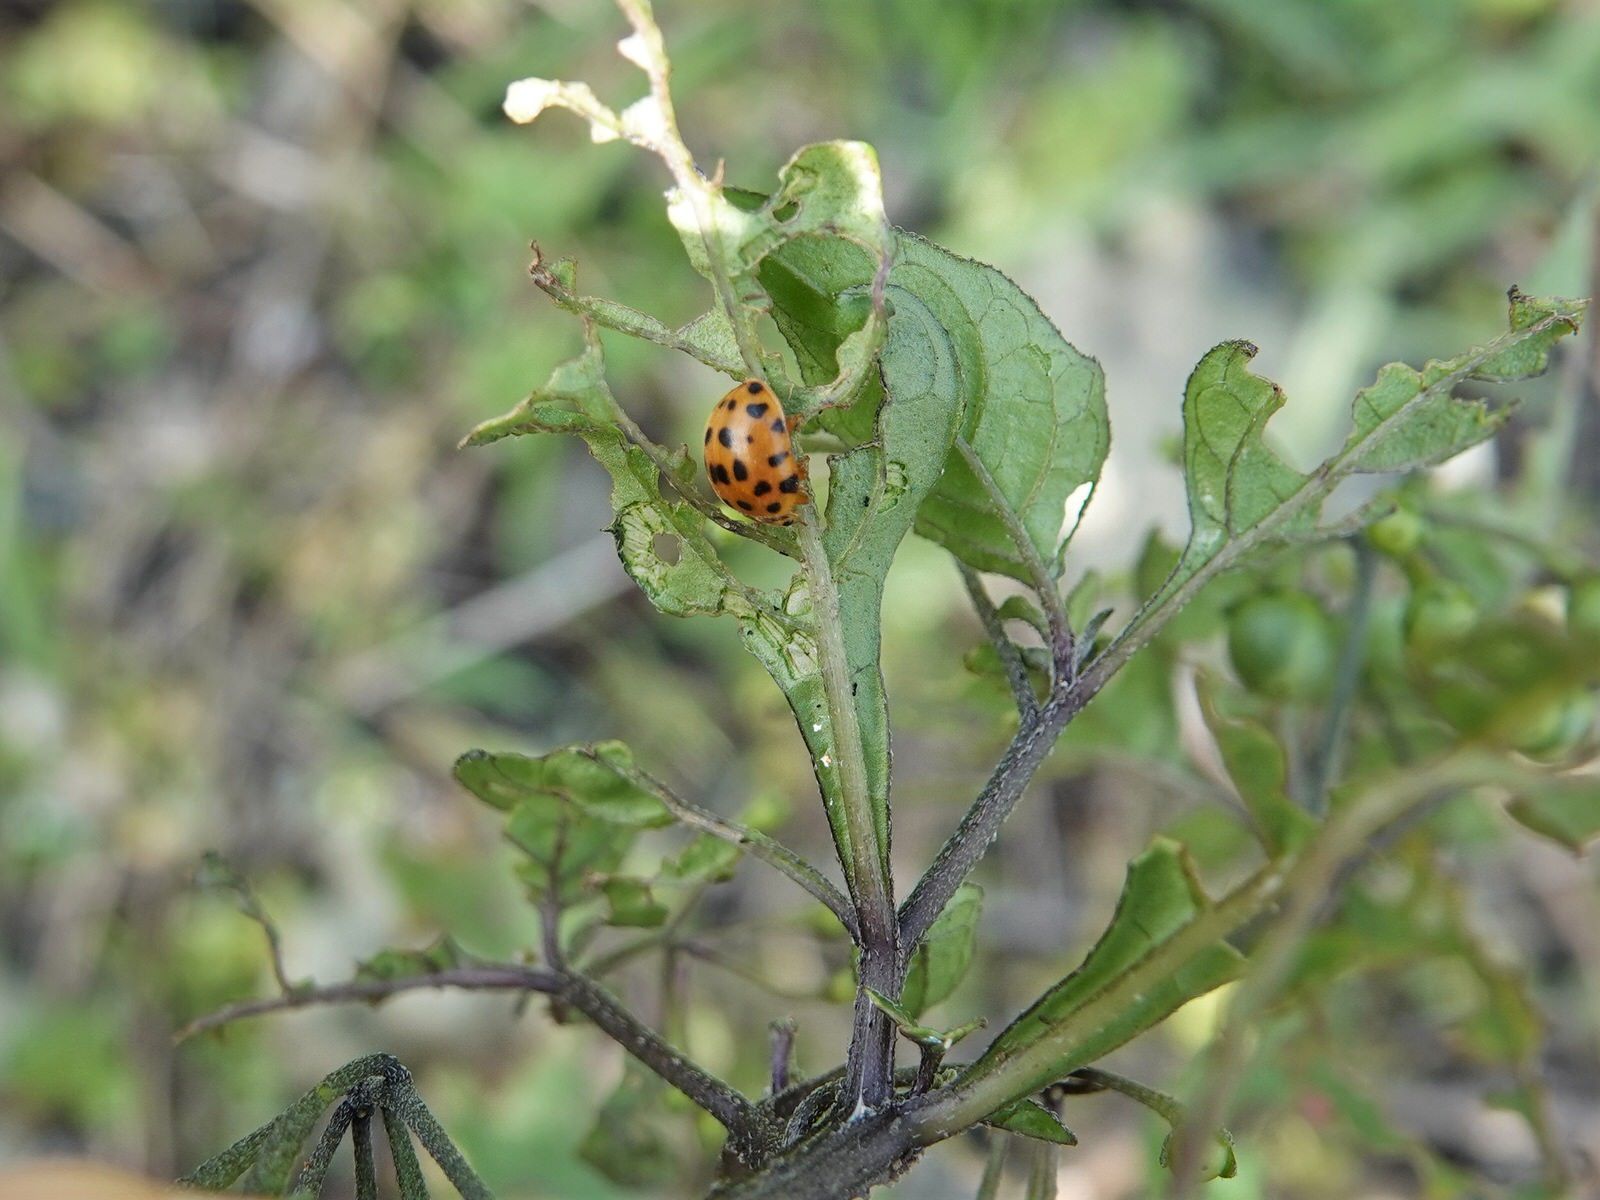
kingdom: Animalia
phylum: Arthropoda
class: Insecta
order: Coleoptera
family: Coccinellidae
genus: Henosepilachna
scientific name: Henosepilachna vigintioctopunctata
